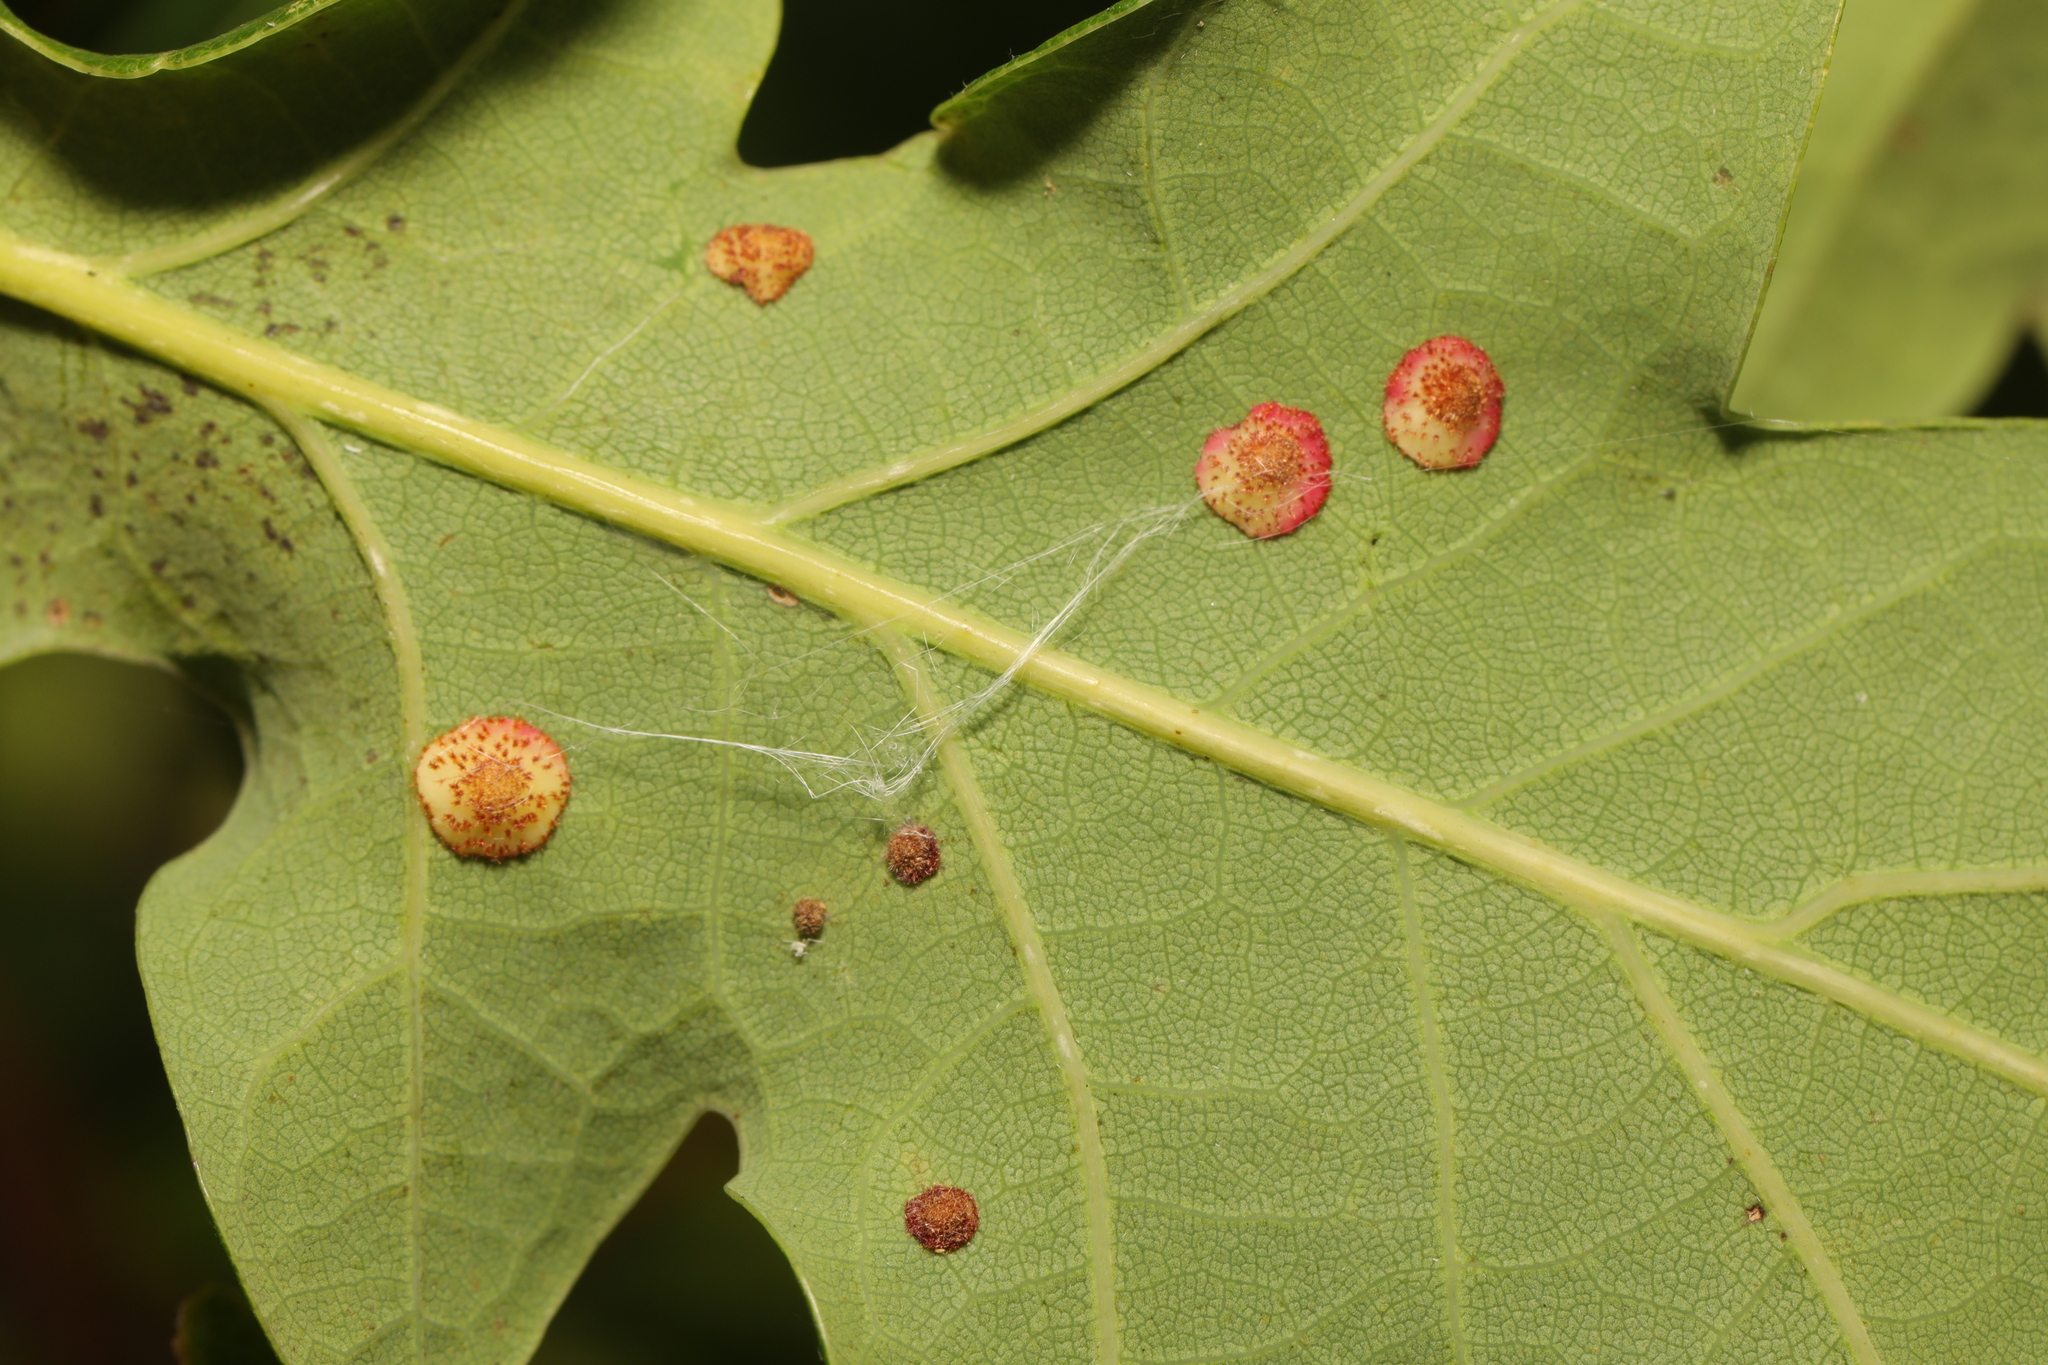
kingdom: Animalia
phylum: Arthropoda
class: Insecta
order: Hymenoptera
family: Cynipidae
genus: Neuroterus
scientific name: Neuroterus quercusbaccarum
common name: Common spangle gall
